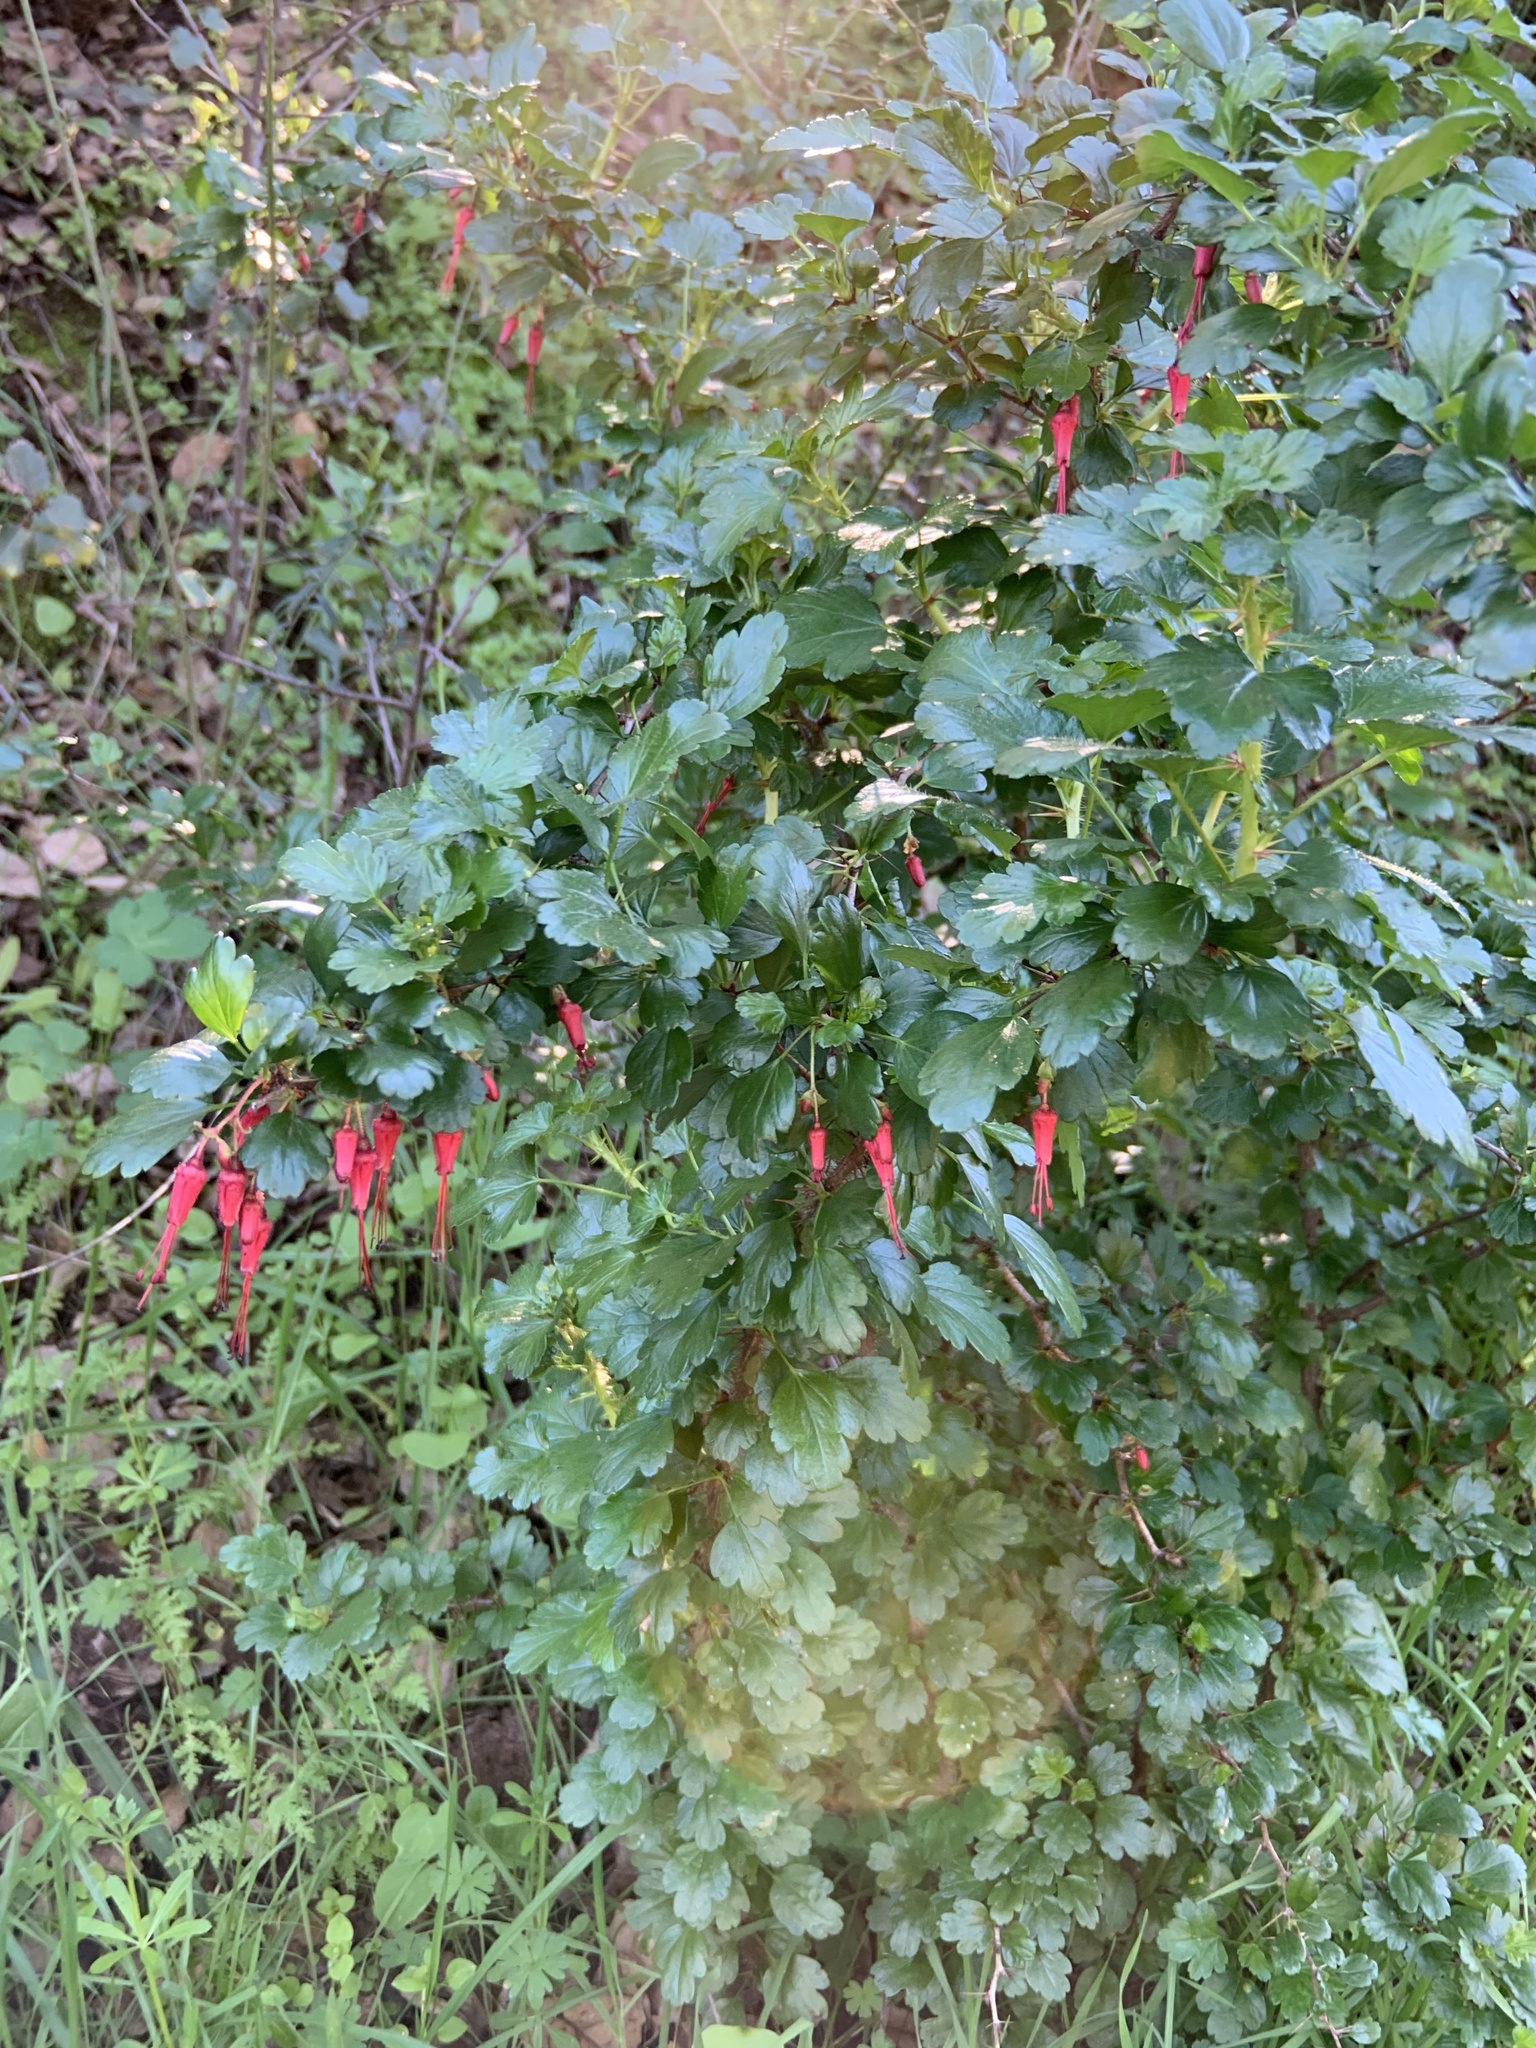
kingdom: Plantae
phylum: Tracheophyta
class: Magnoliopsida
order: Saxifragales
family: Grossulariaceae
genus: Ribes
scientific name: Ribes speciosum
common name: Fuchsia-flower gooseberry
